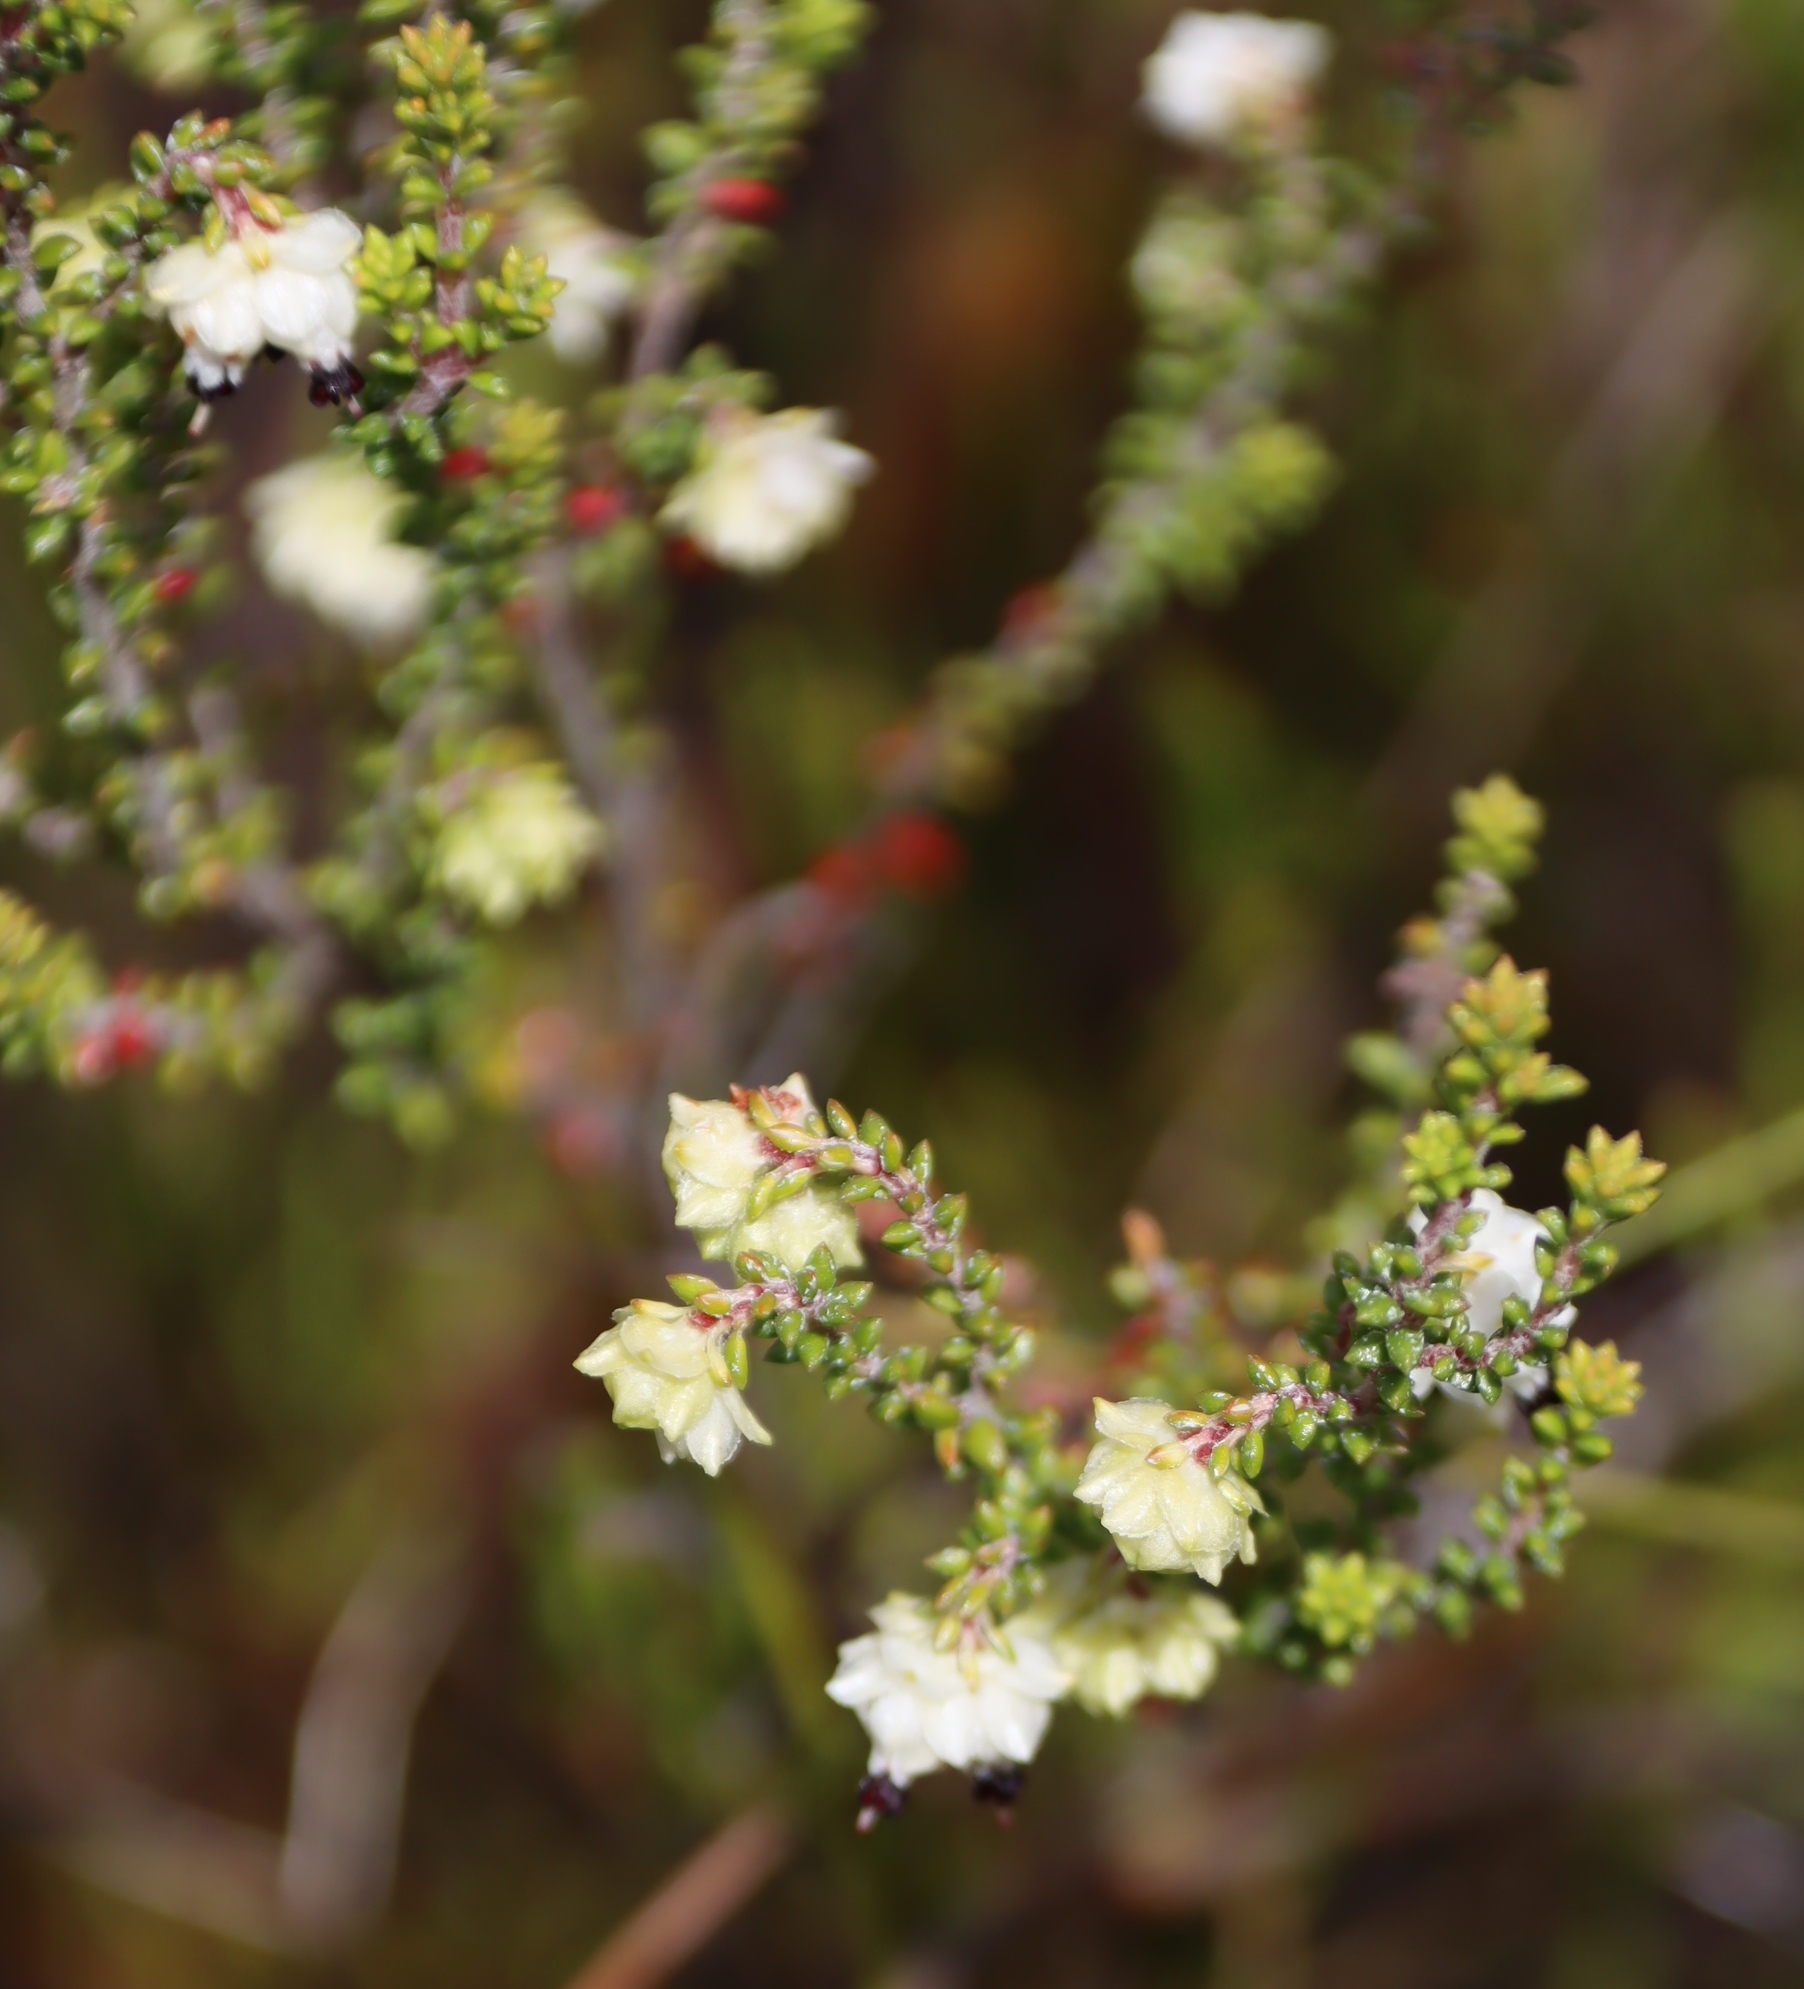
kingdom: Plantae
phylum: Tracheophyta
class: Magnoliopsida
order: Ericales
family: Ericaceae
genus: Erica
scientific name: Erica azaleifolia
